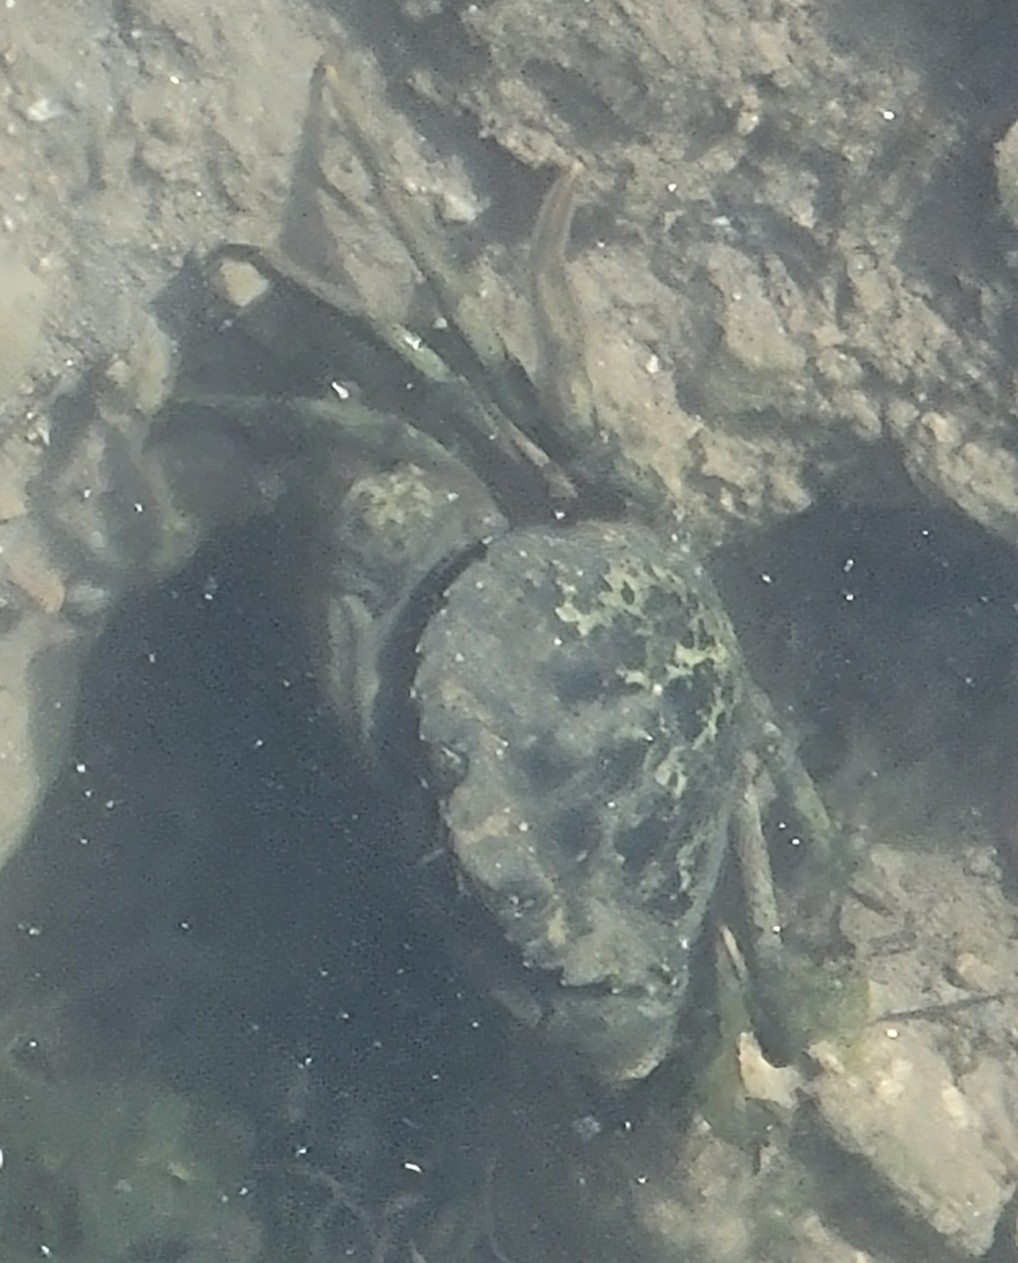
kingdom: Animalia
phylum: Arthropoda
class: Malacostraca
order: Decapoda
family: Carcinidae
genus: Carcinus
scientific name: Carcinus maenas
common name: European green crab
